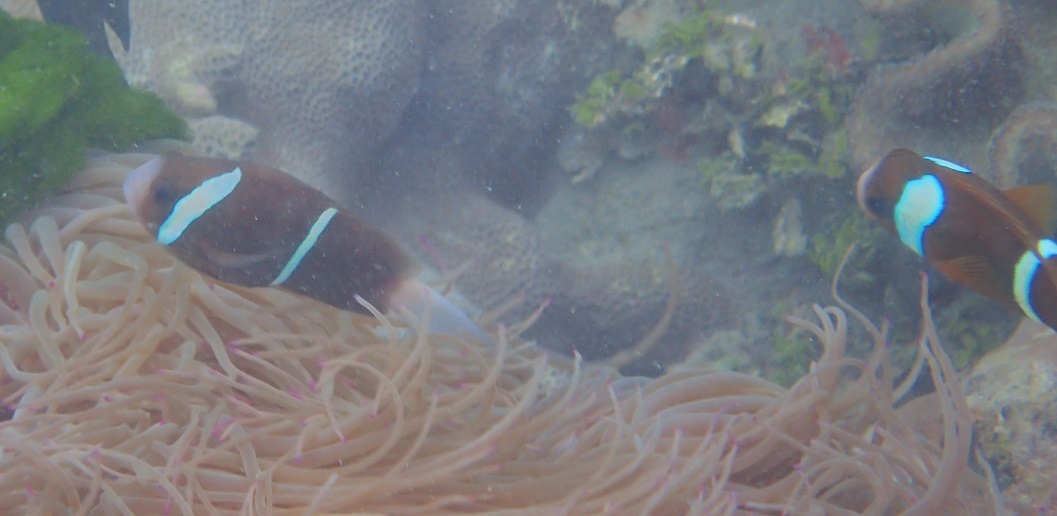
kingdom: Animalia
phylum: Chordata
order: Perciformes
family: Pomacentridae
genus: Amphiprion
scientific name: Amphiprion akindynos
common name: Barrier reef anemonefish
